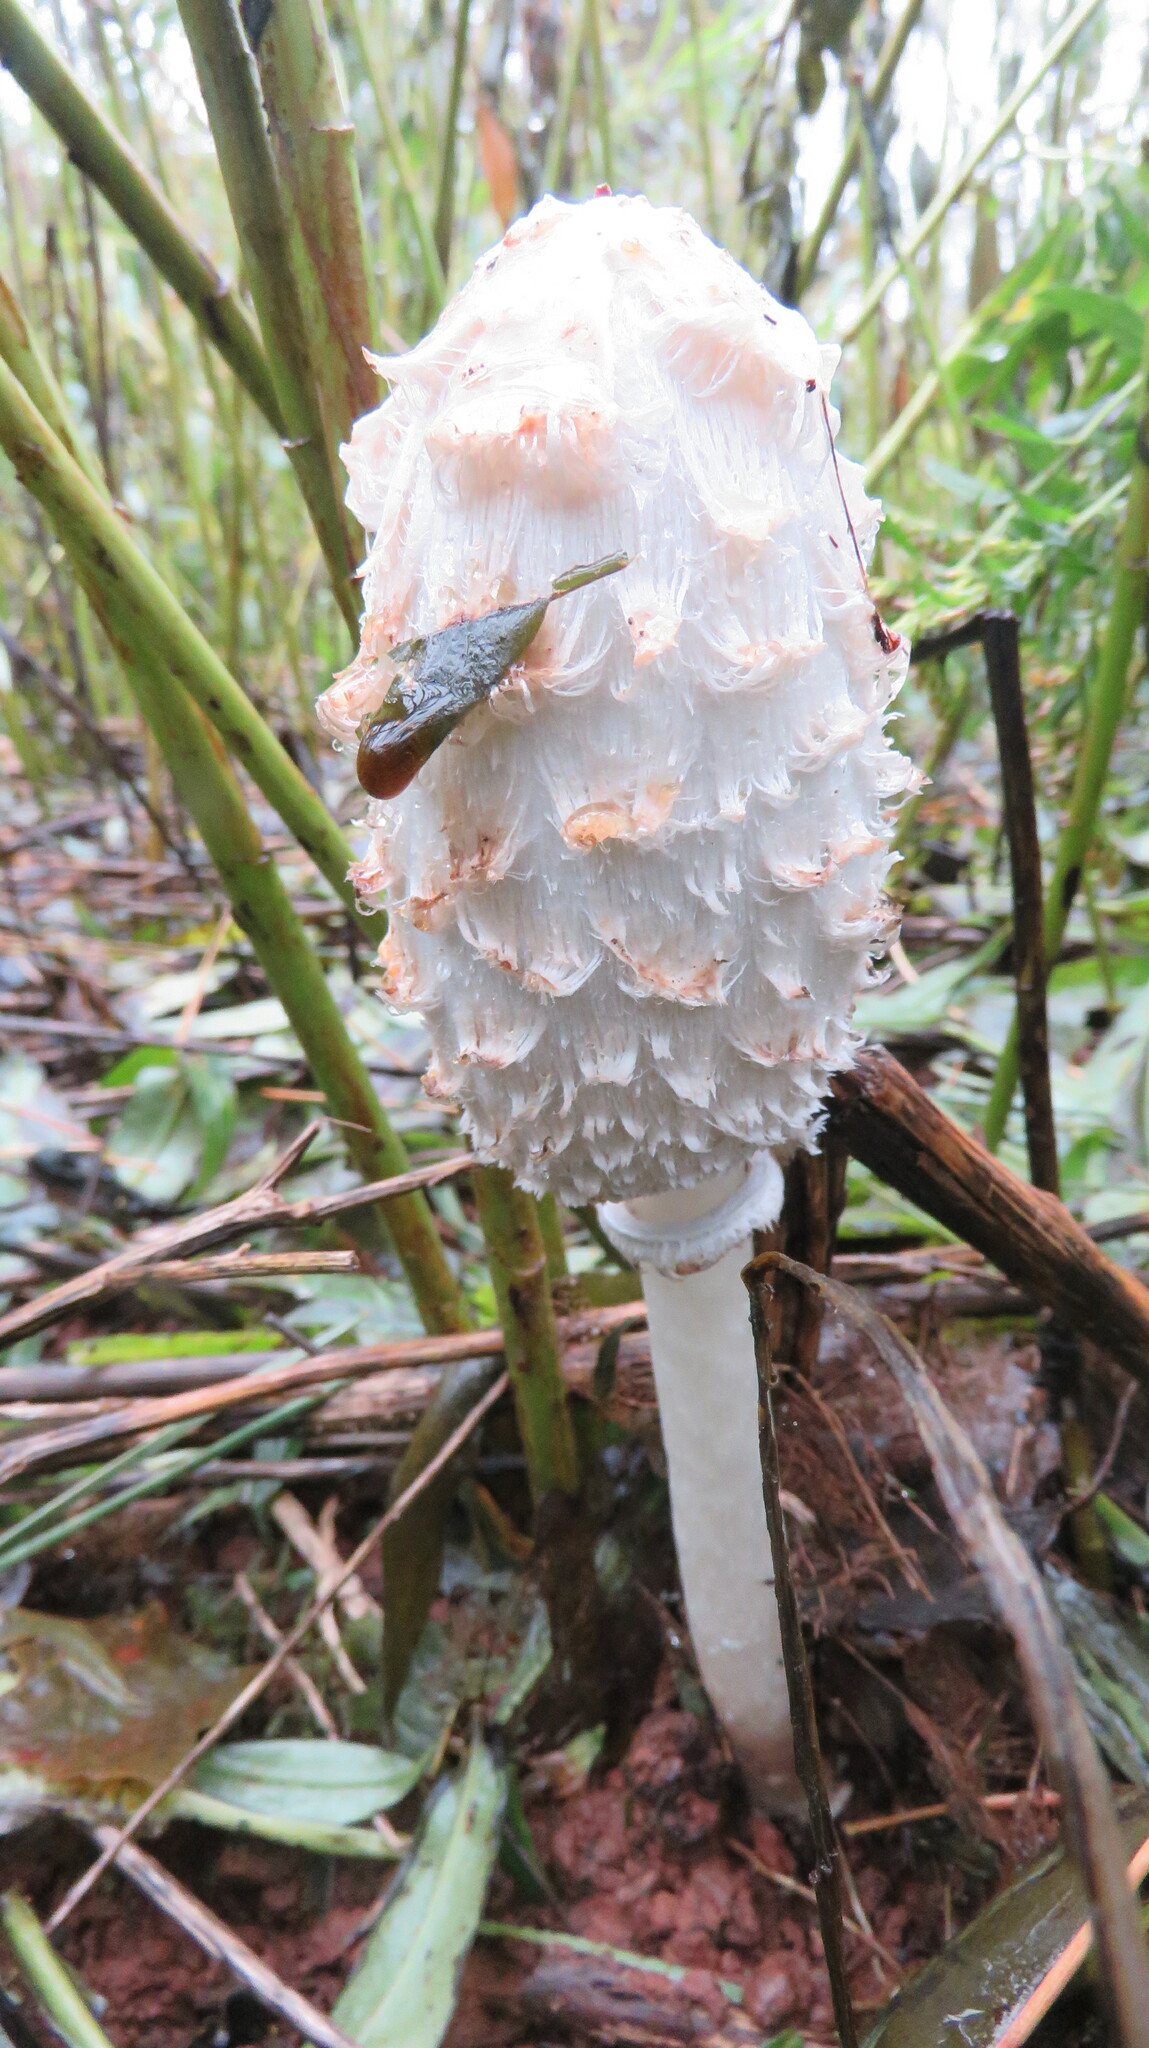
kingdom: Fungi
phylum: Basidiomycota
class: Agaricomycetes
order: Agaricales
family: Agaricaceae
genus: Coprinus
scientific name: Coprinus comatus
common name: Lawyer's wig
